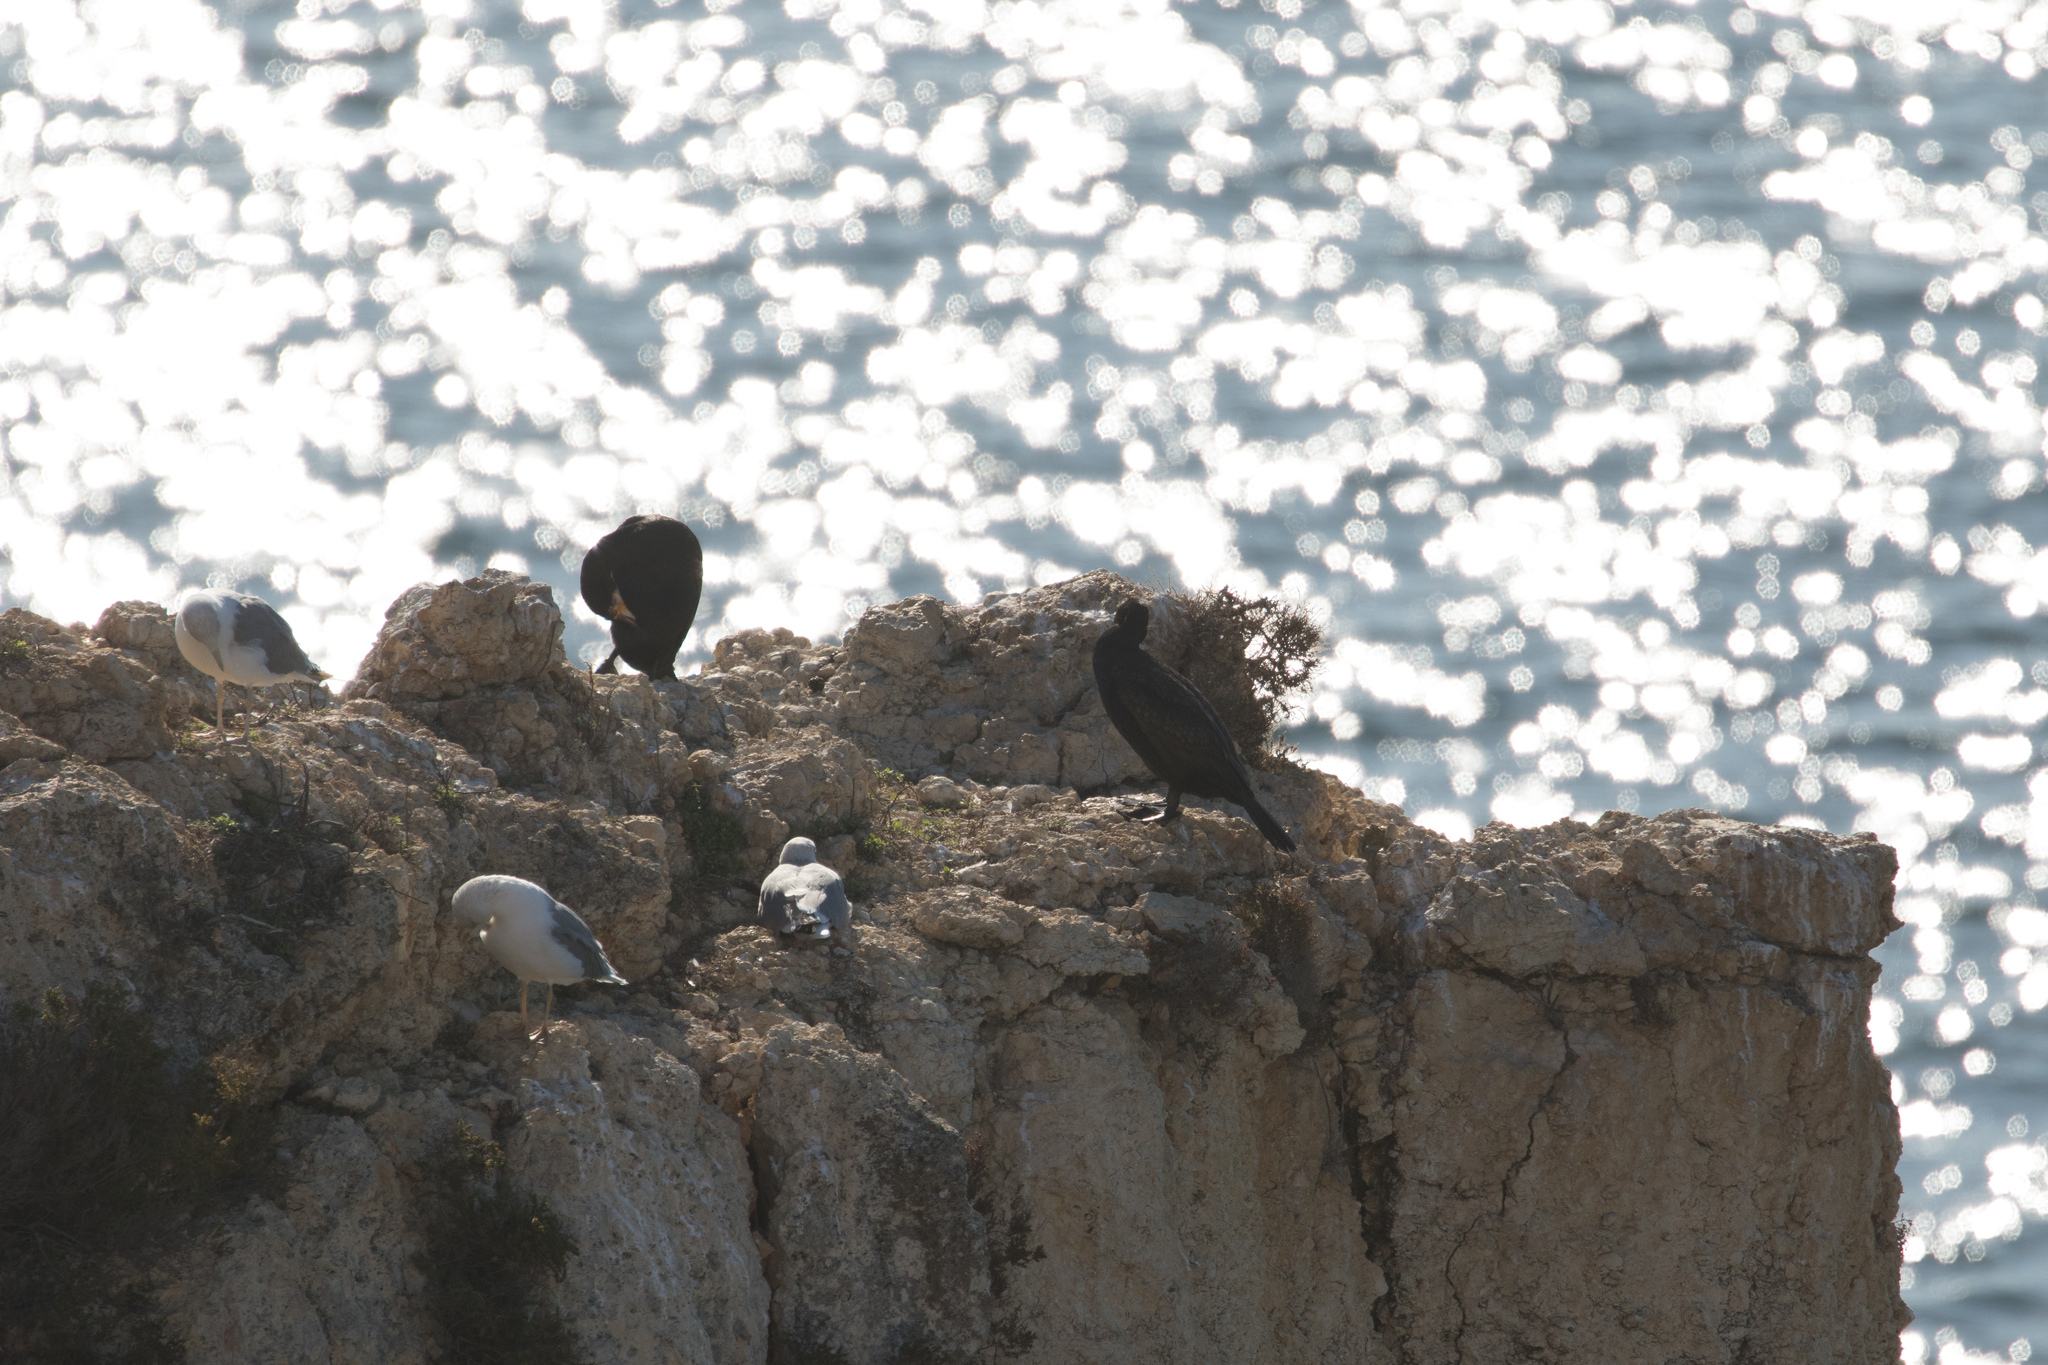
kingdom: Animalia
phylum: Chordata
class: Aves
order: Suliformes
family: Phalacrocoracidae
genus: Phalacrocorax
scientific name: Phalacrocorax carbo
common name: Great cormorant
